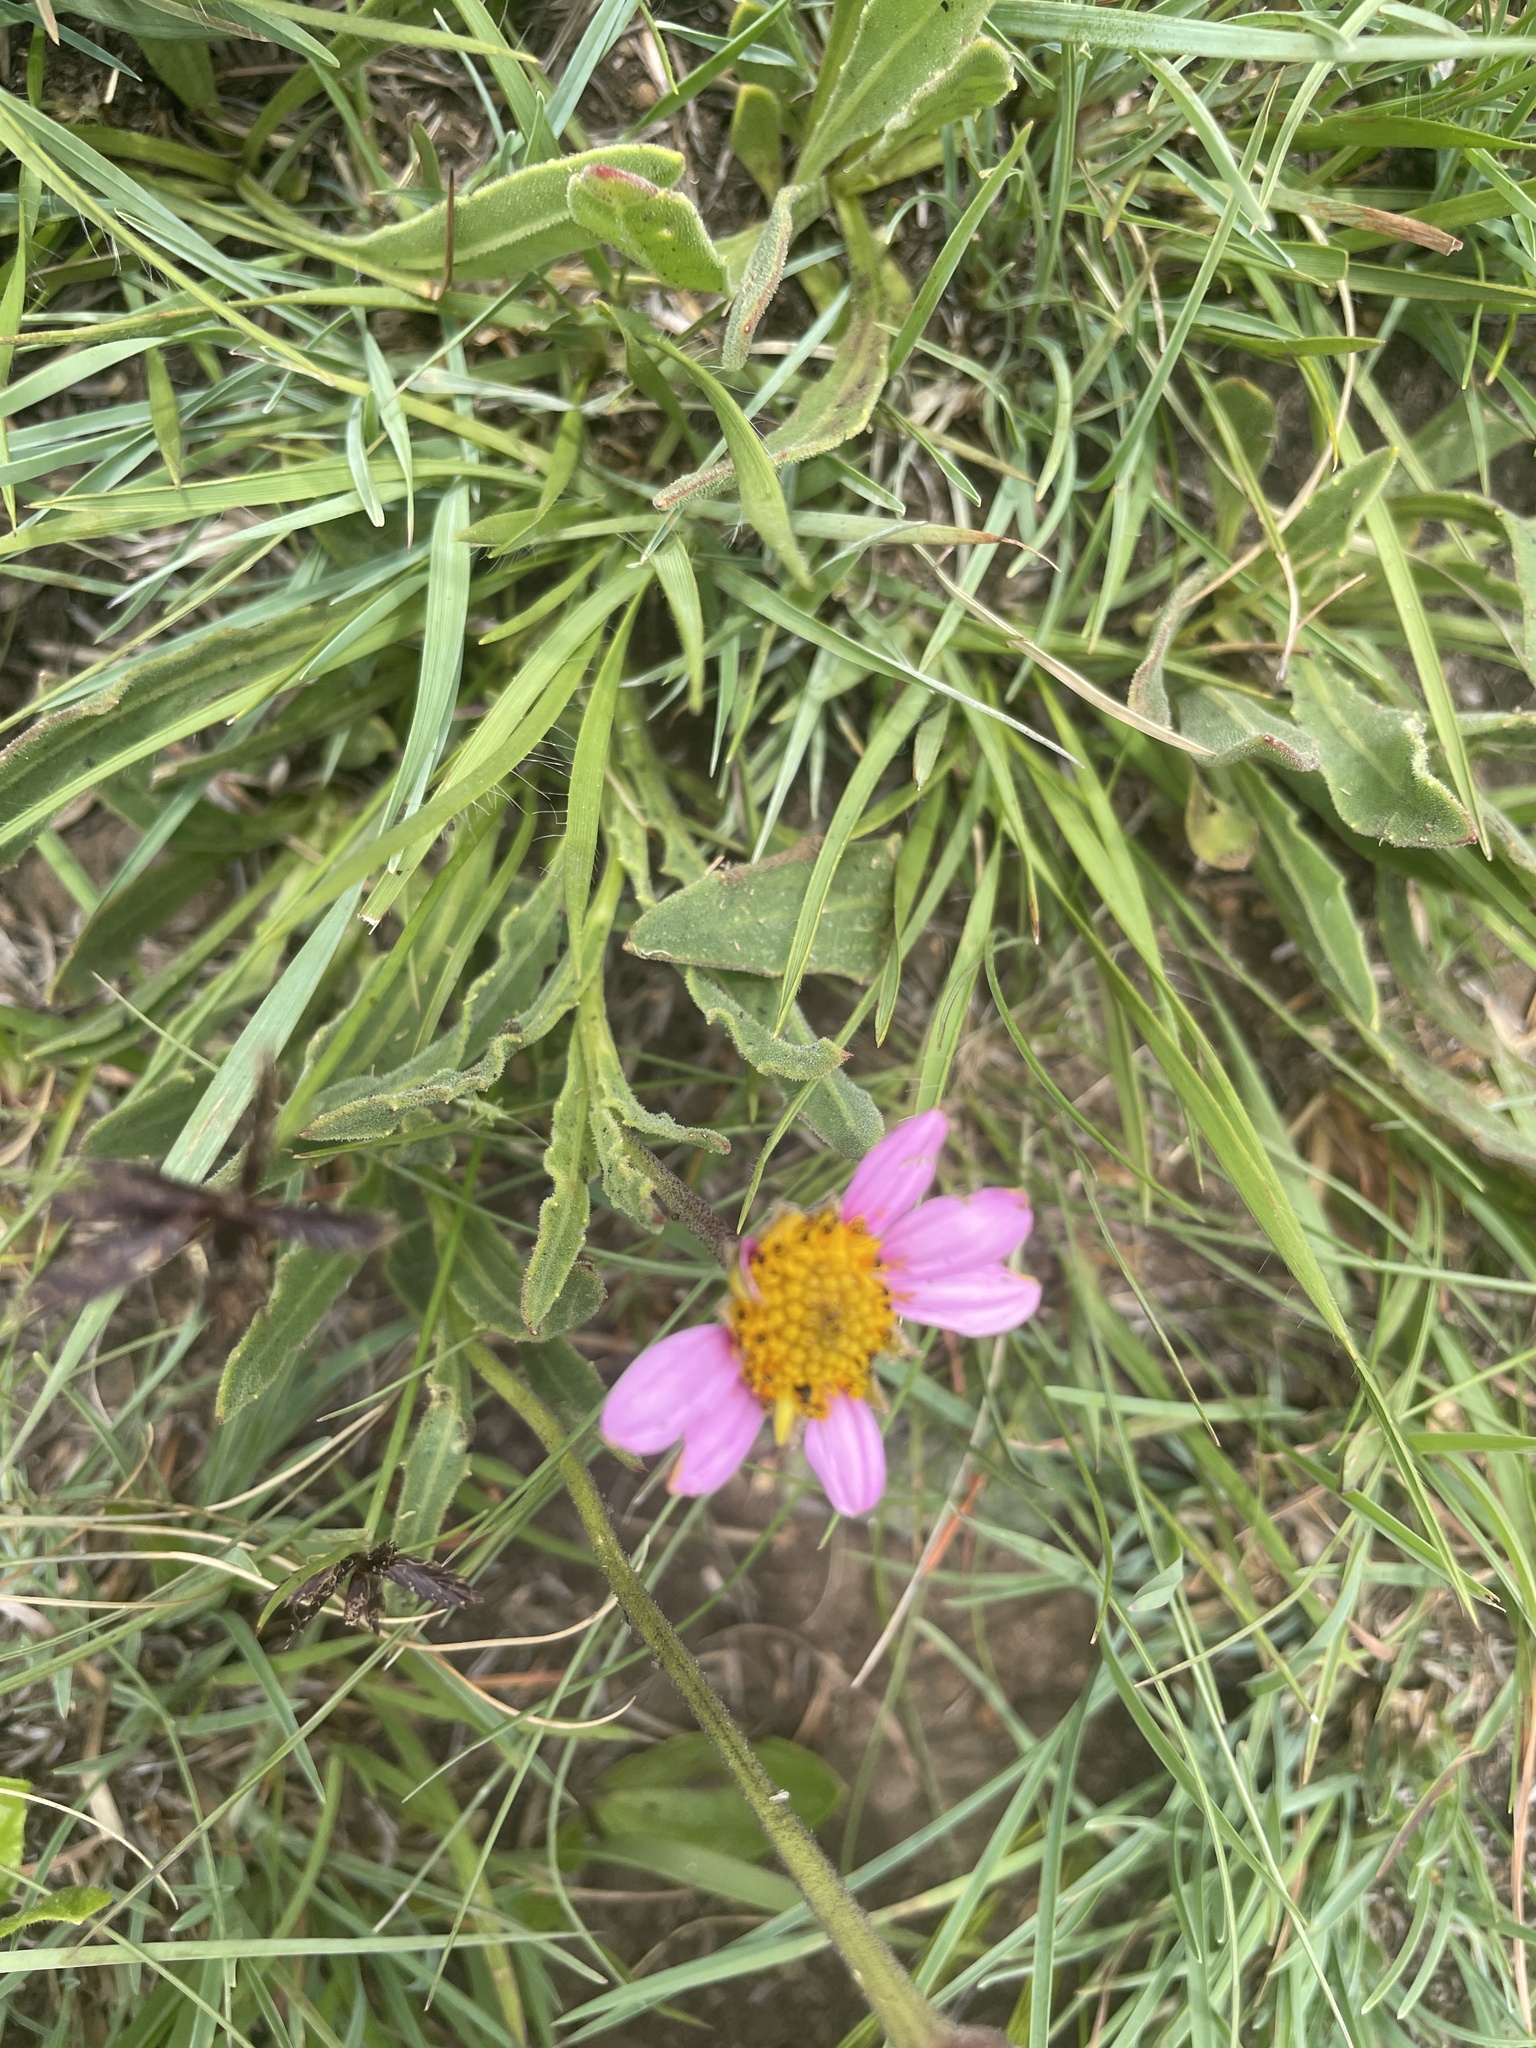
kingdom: Plantae
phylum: Tracheophyta
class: Magnoliopsida
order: Asterales
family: Asteraceae
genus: Dimorphotheca
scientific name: Dimorphotheca jucunda
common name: Osteospermum
